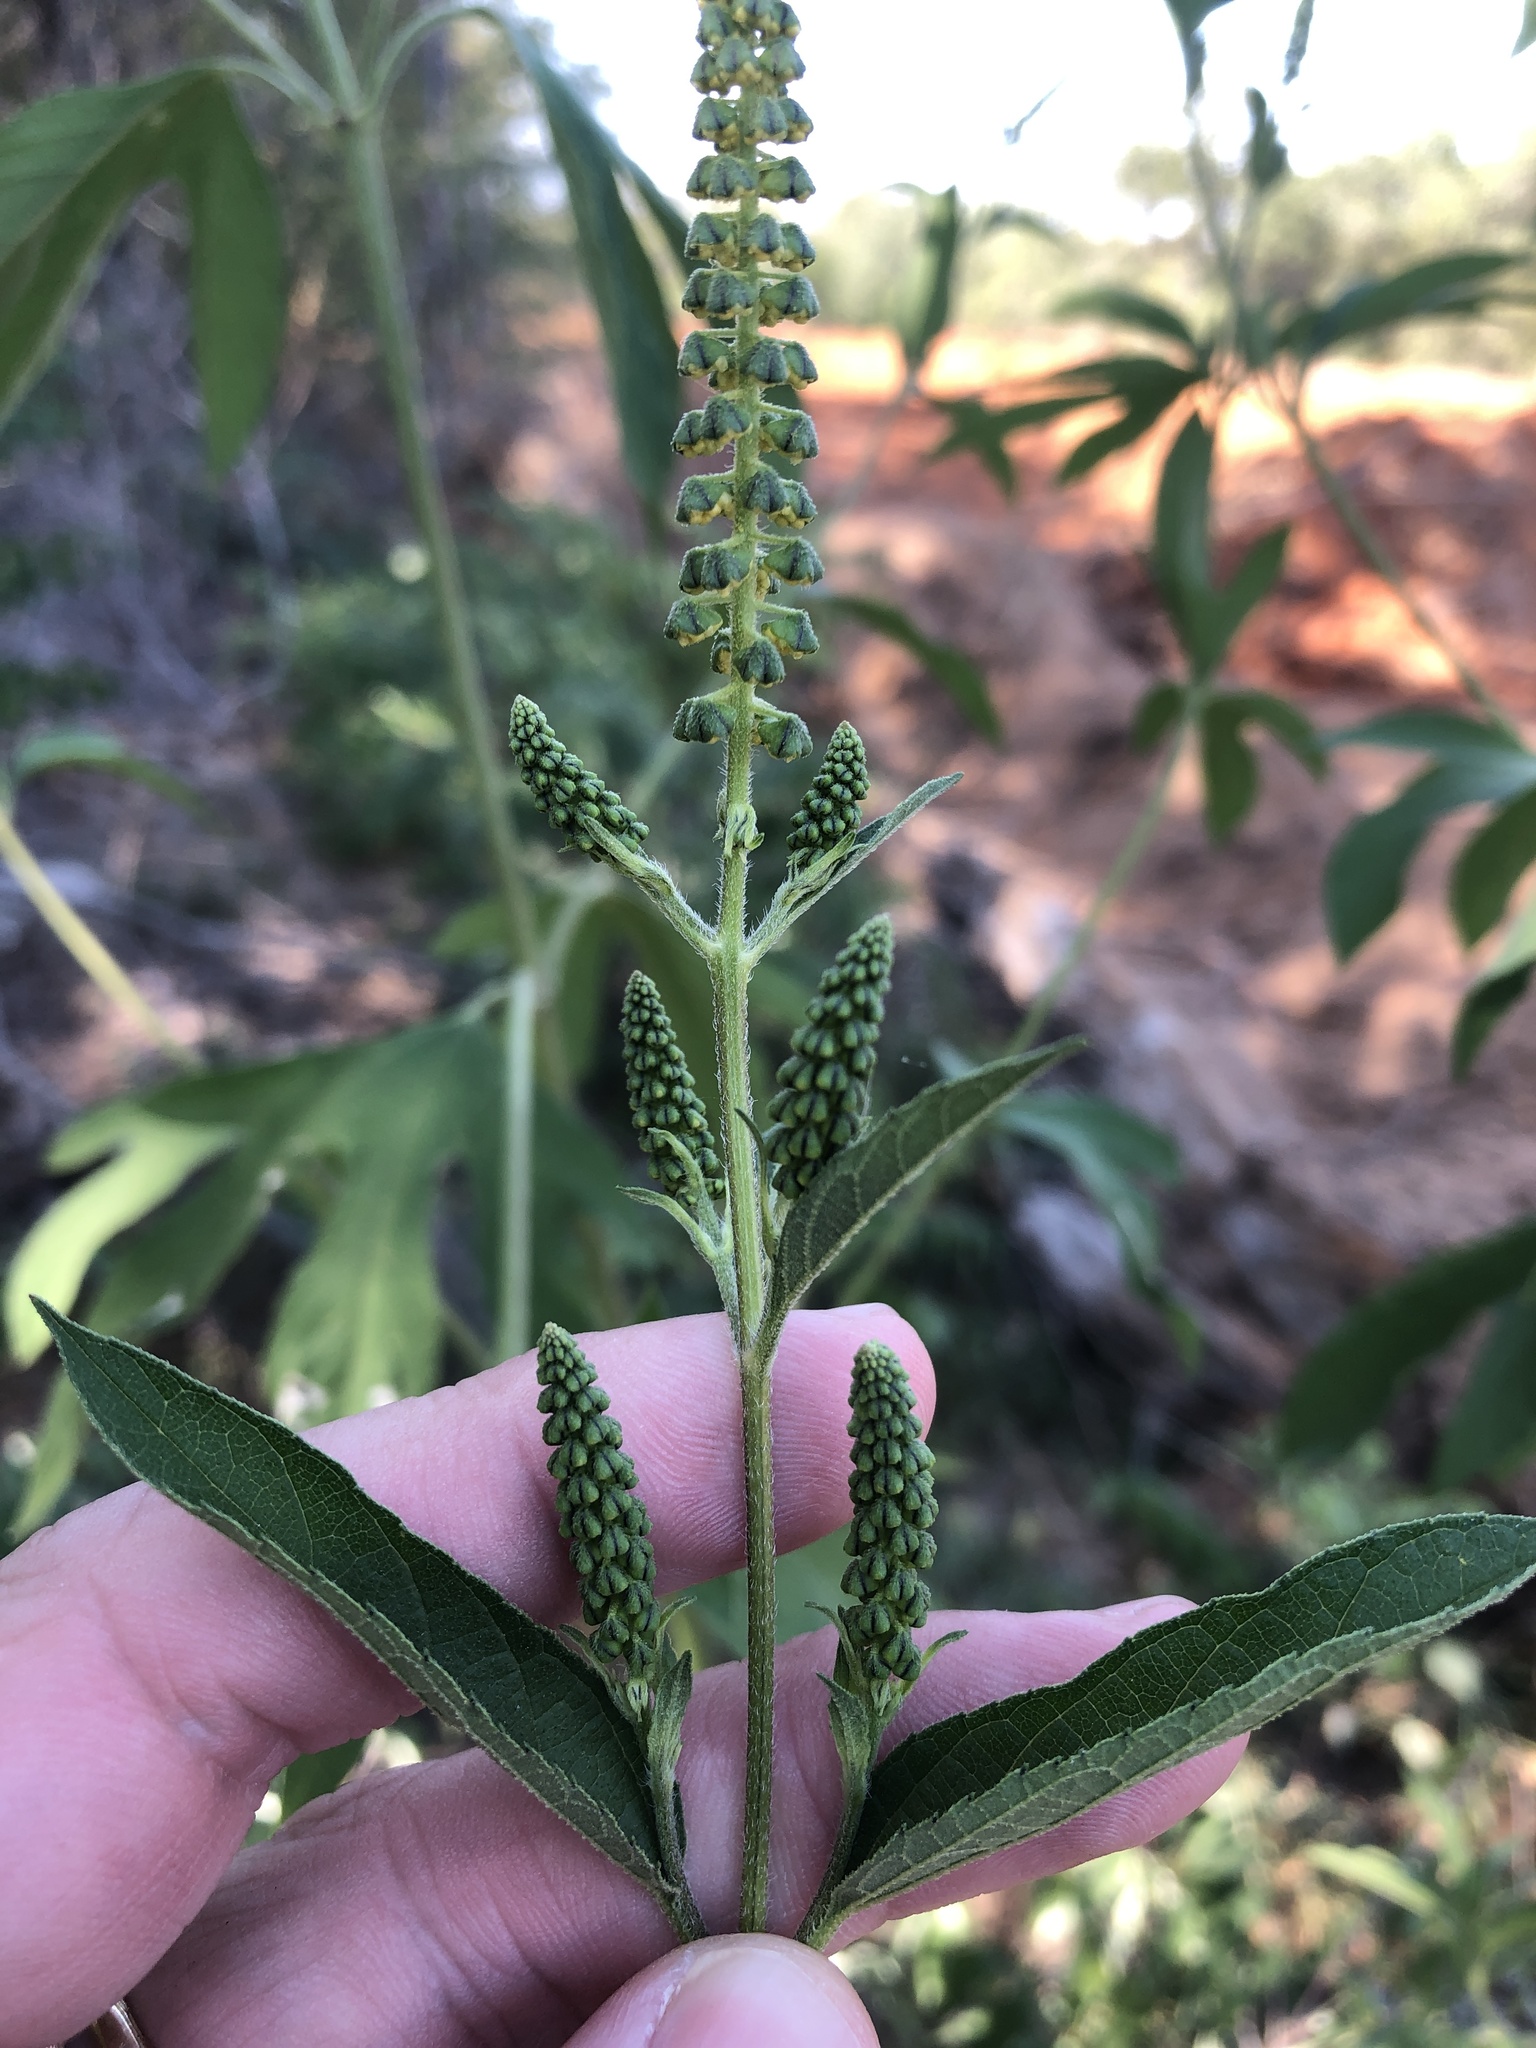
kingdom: Plantae
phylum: Tracheophyta
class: Magnoliopsida
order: Asterales
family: Asteraceae
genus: Ambrosia
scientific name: Ambrosia trifida
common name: Giant ragweed
